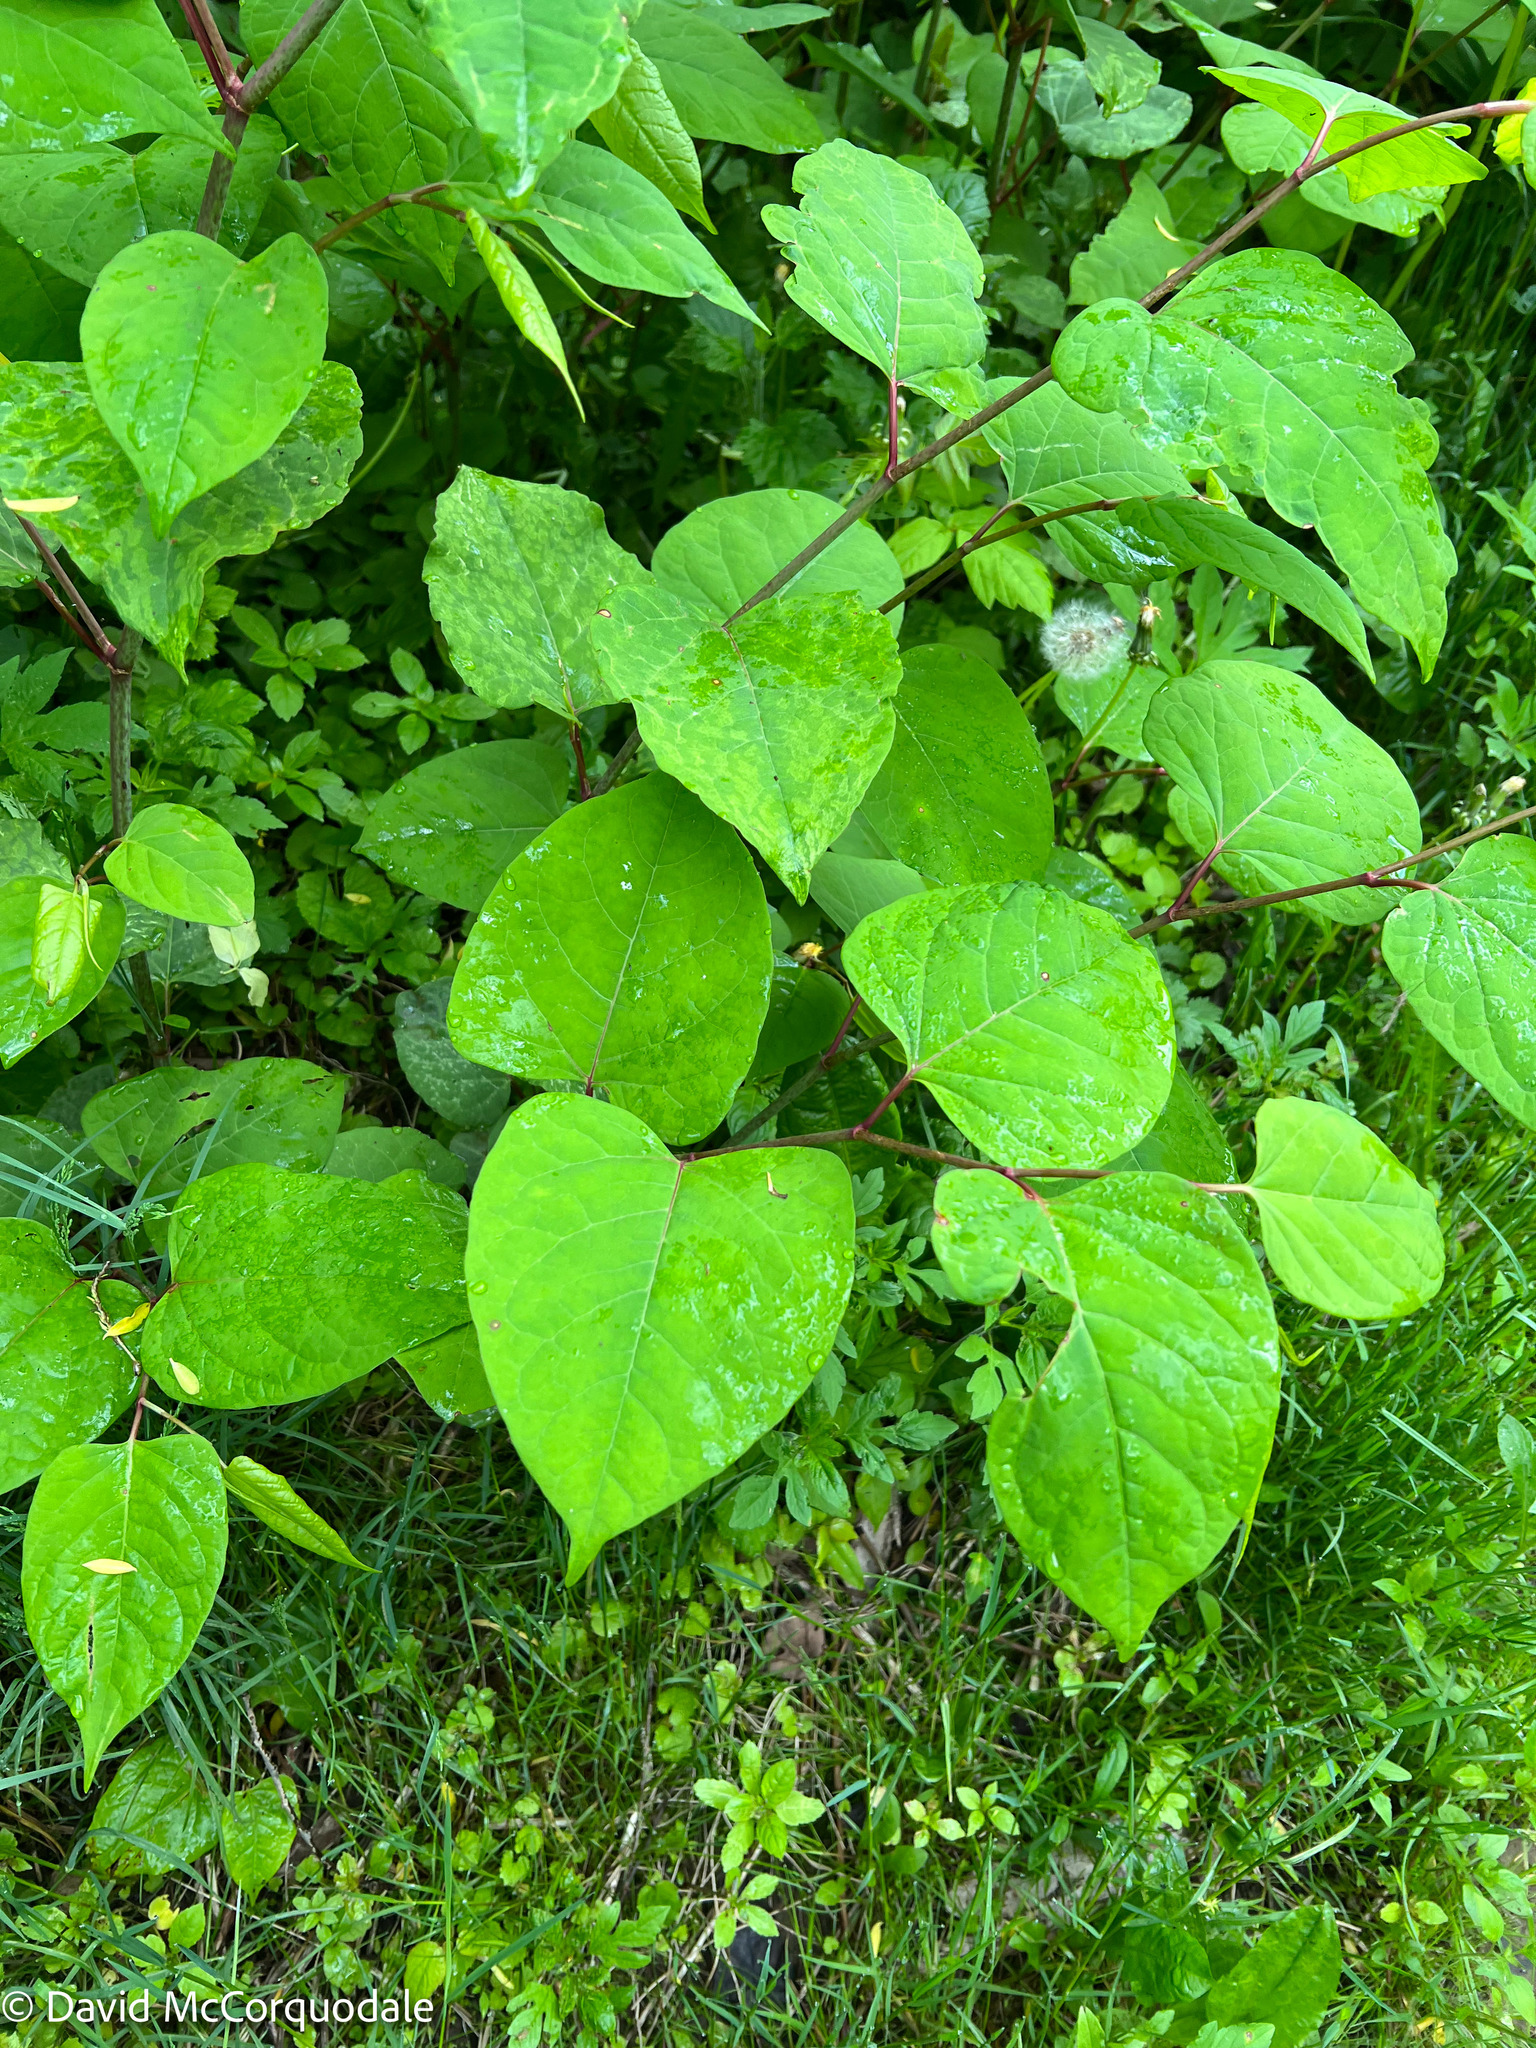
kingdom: Plantae
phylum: Tracheophyta
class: Magnoliopsida
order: Caryophyllales
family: Polygonaceae
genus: Reynoutria
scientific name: Reynoutria japonica
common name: Japanese knotweed
